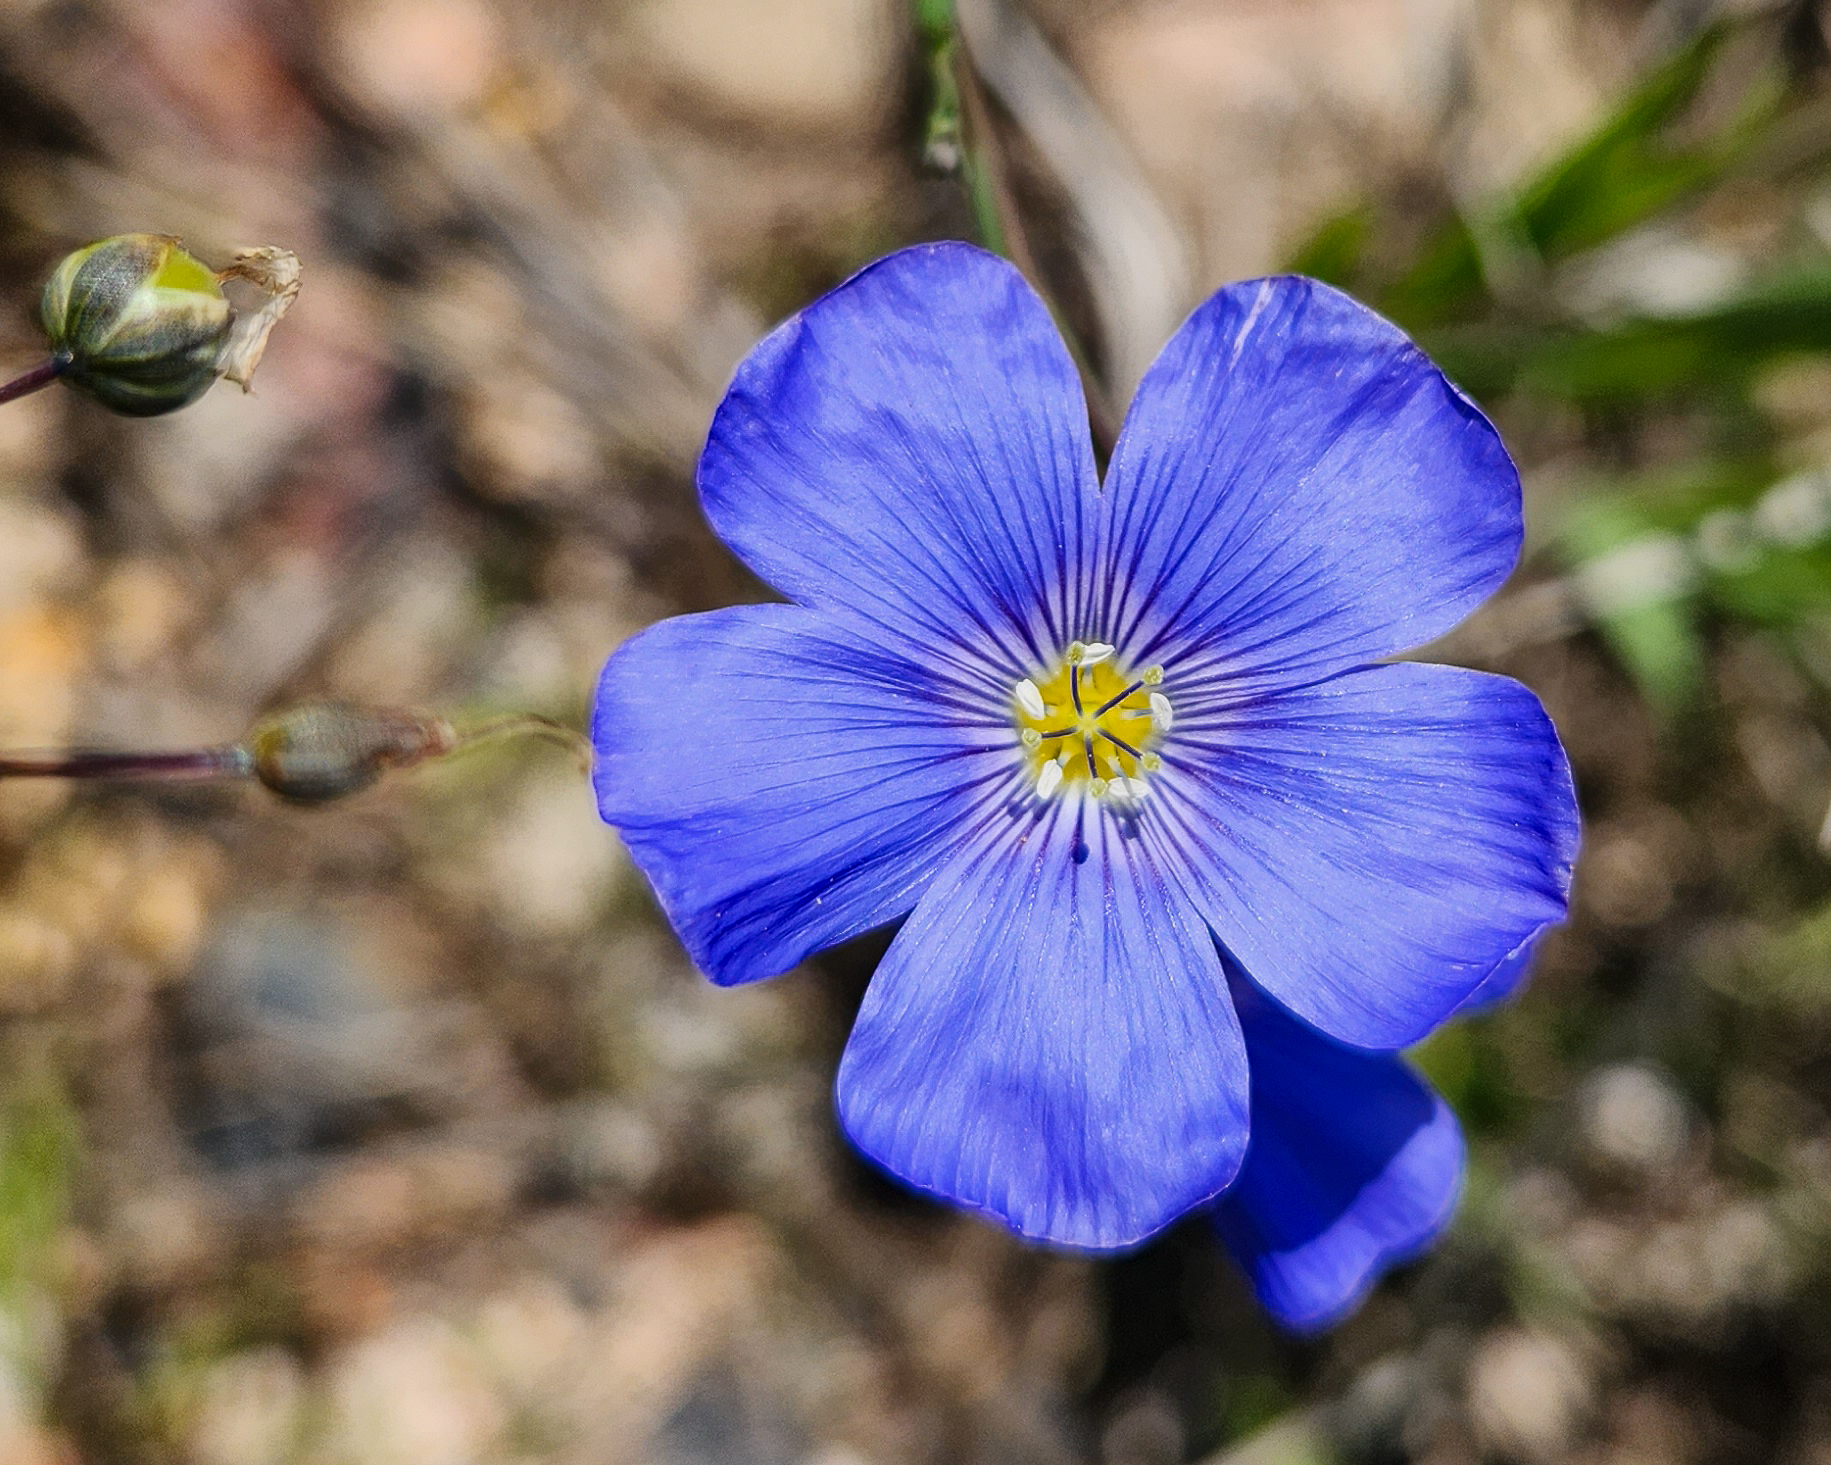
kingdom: Plantae
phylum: Tracheophyta
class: Magnoliopsida
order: Malpighiales
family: Linaceae
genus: Linum
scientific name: Linum lewisii
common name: Prairie flax
